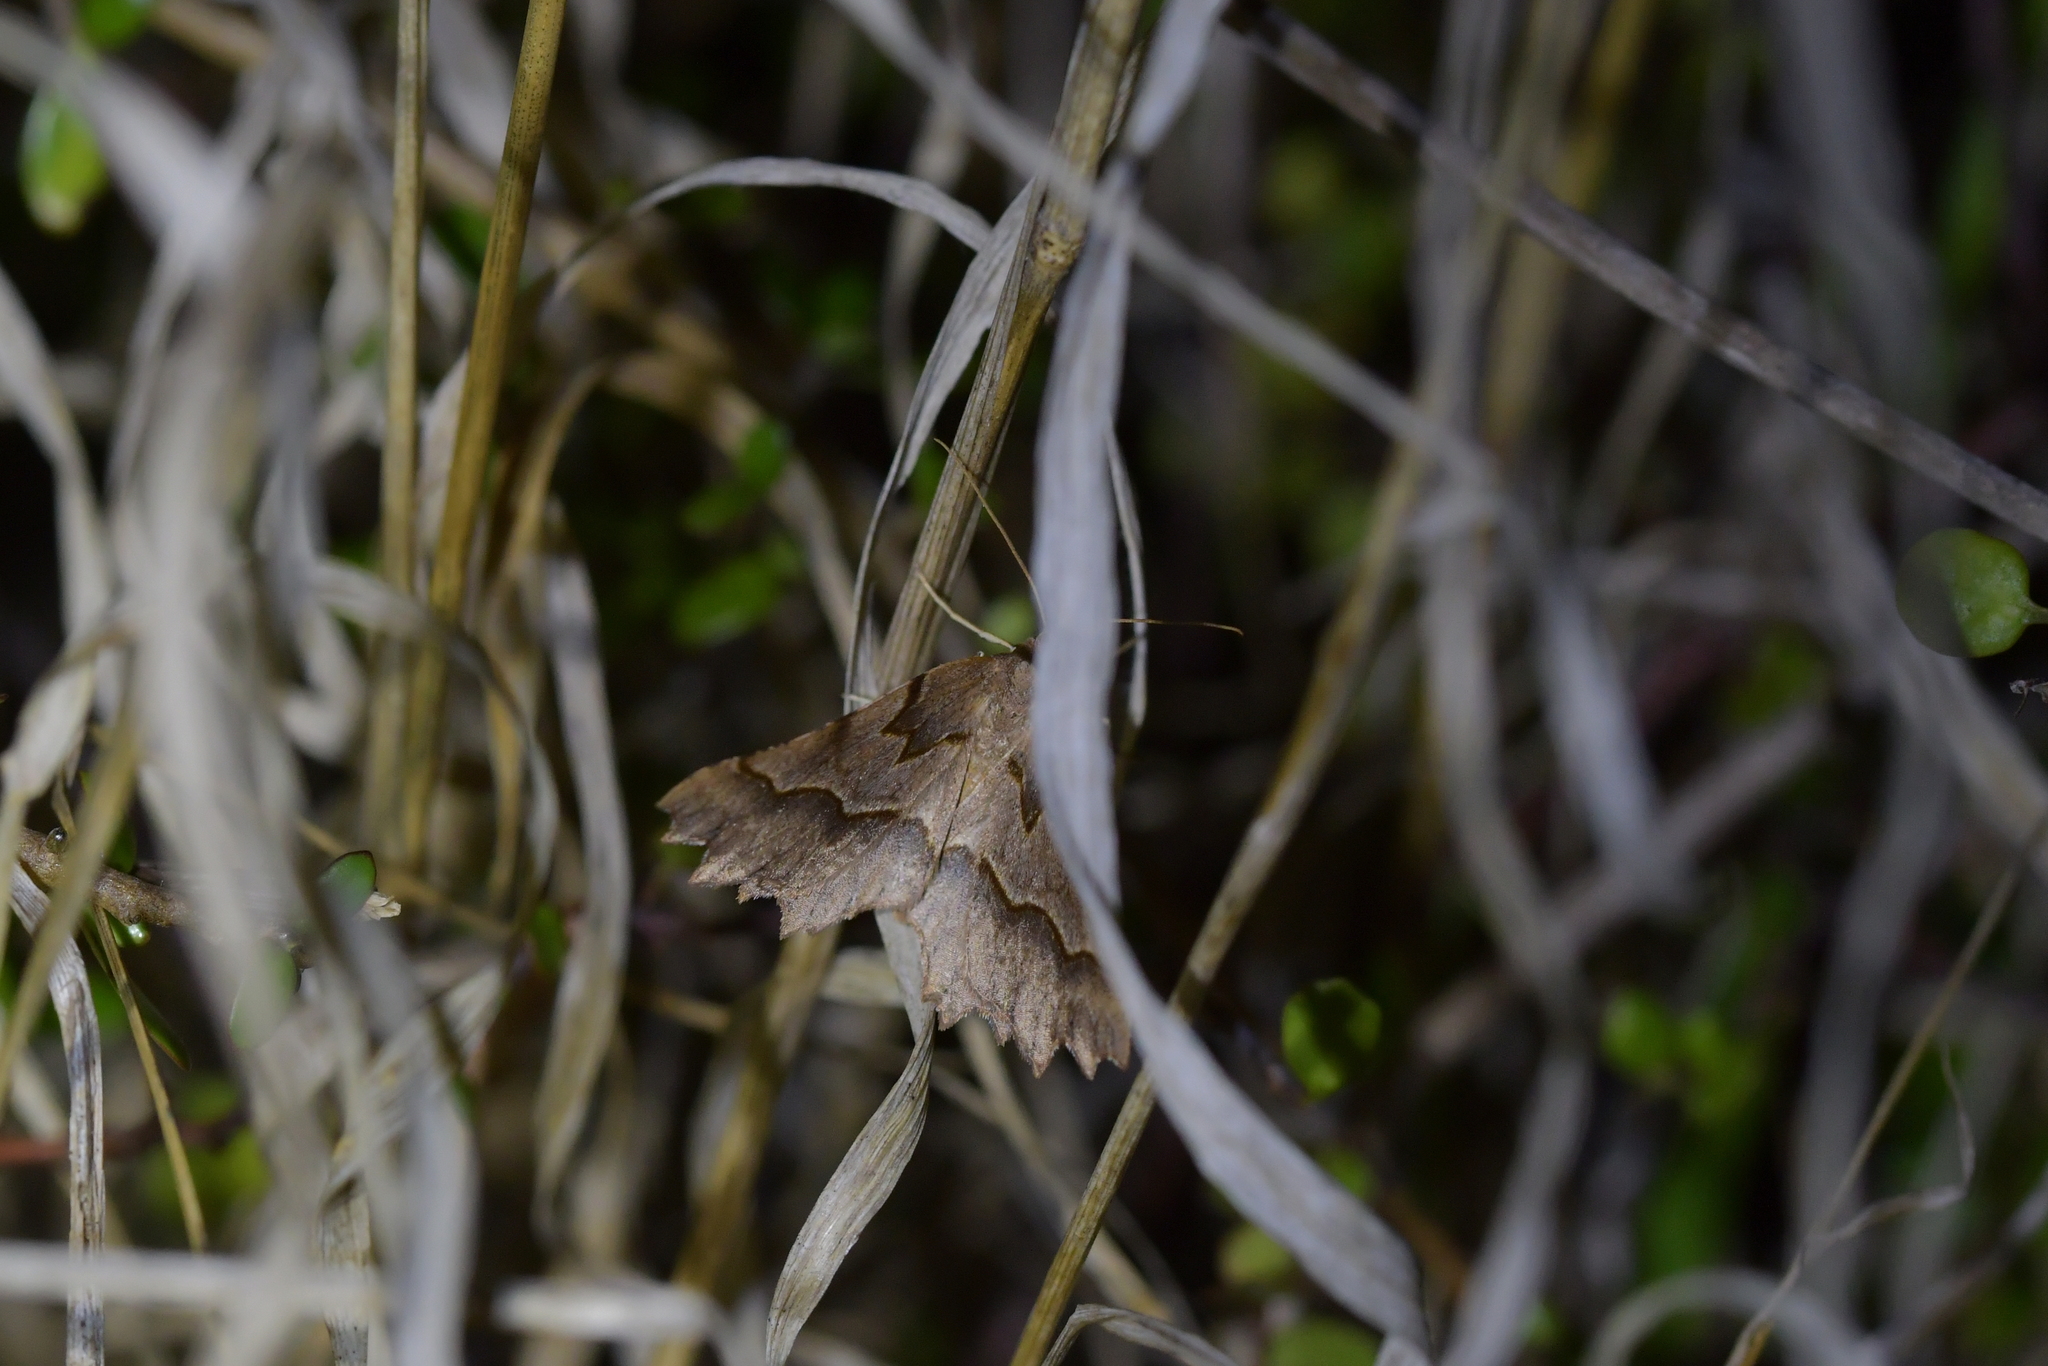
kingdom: Animalia
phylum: Arthropoda
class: Insecta
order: Lepidoptera
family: Geometridae
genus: Ischalis
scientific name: Ischalis fortinata
